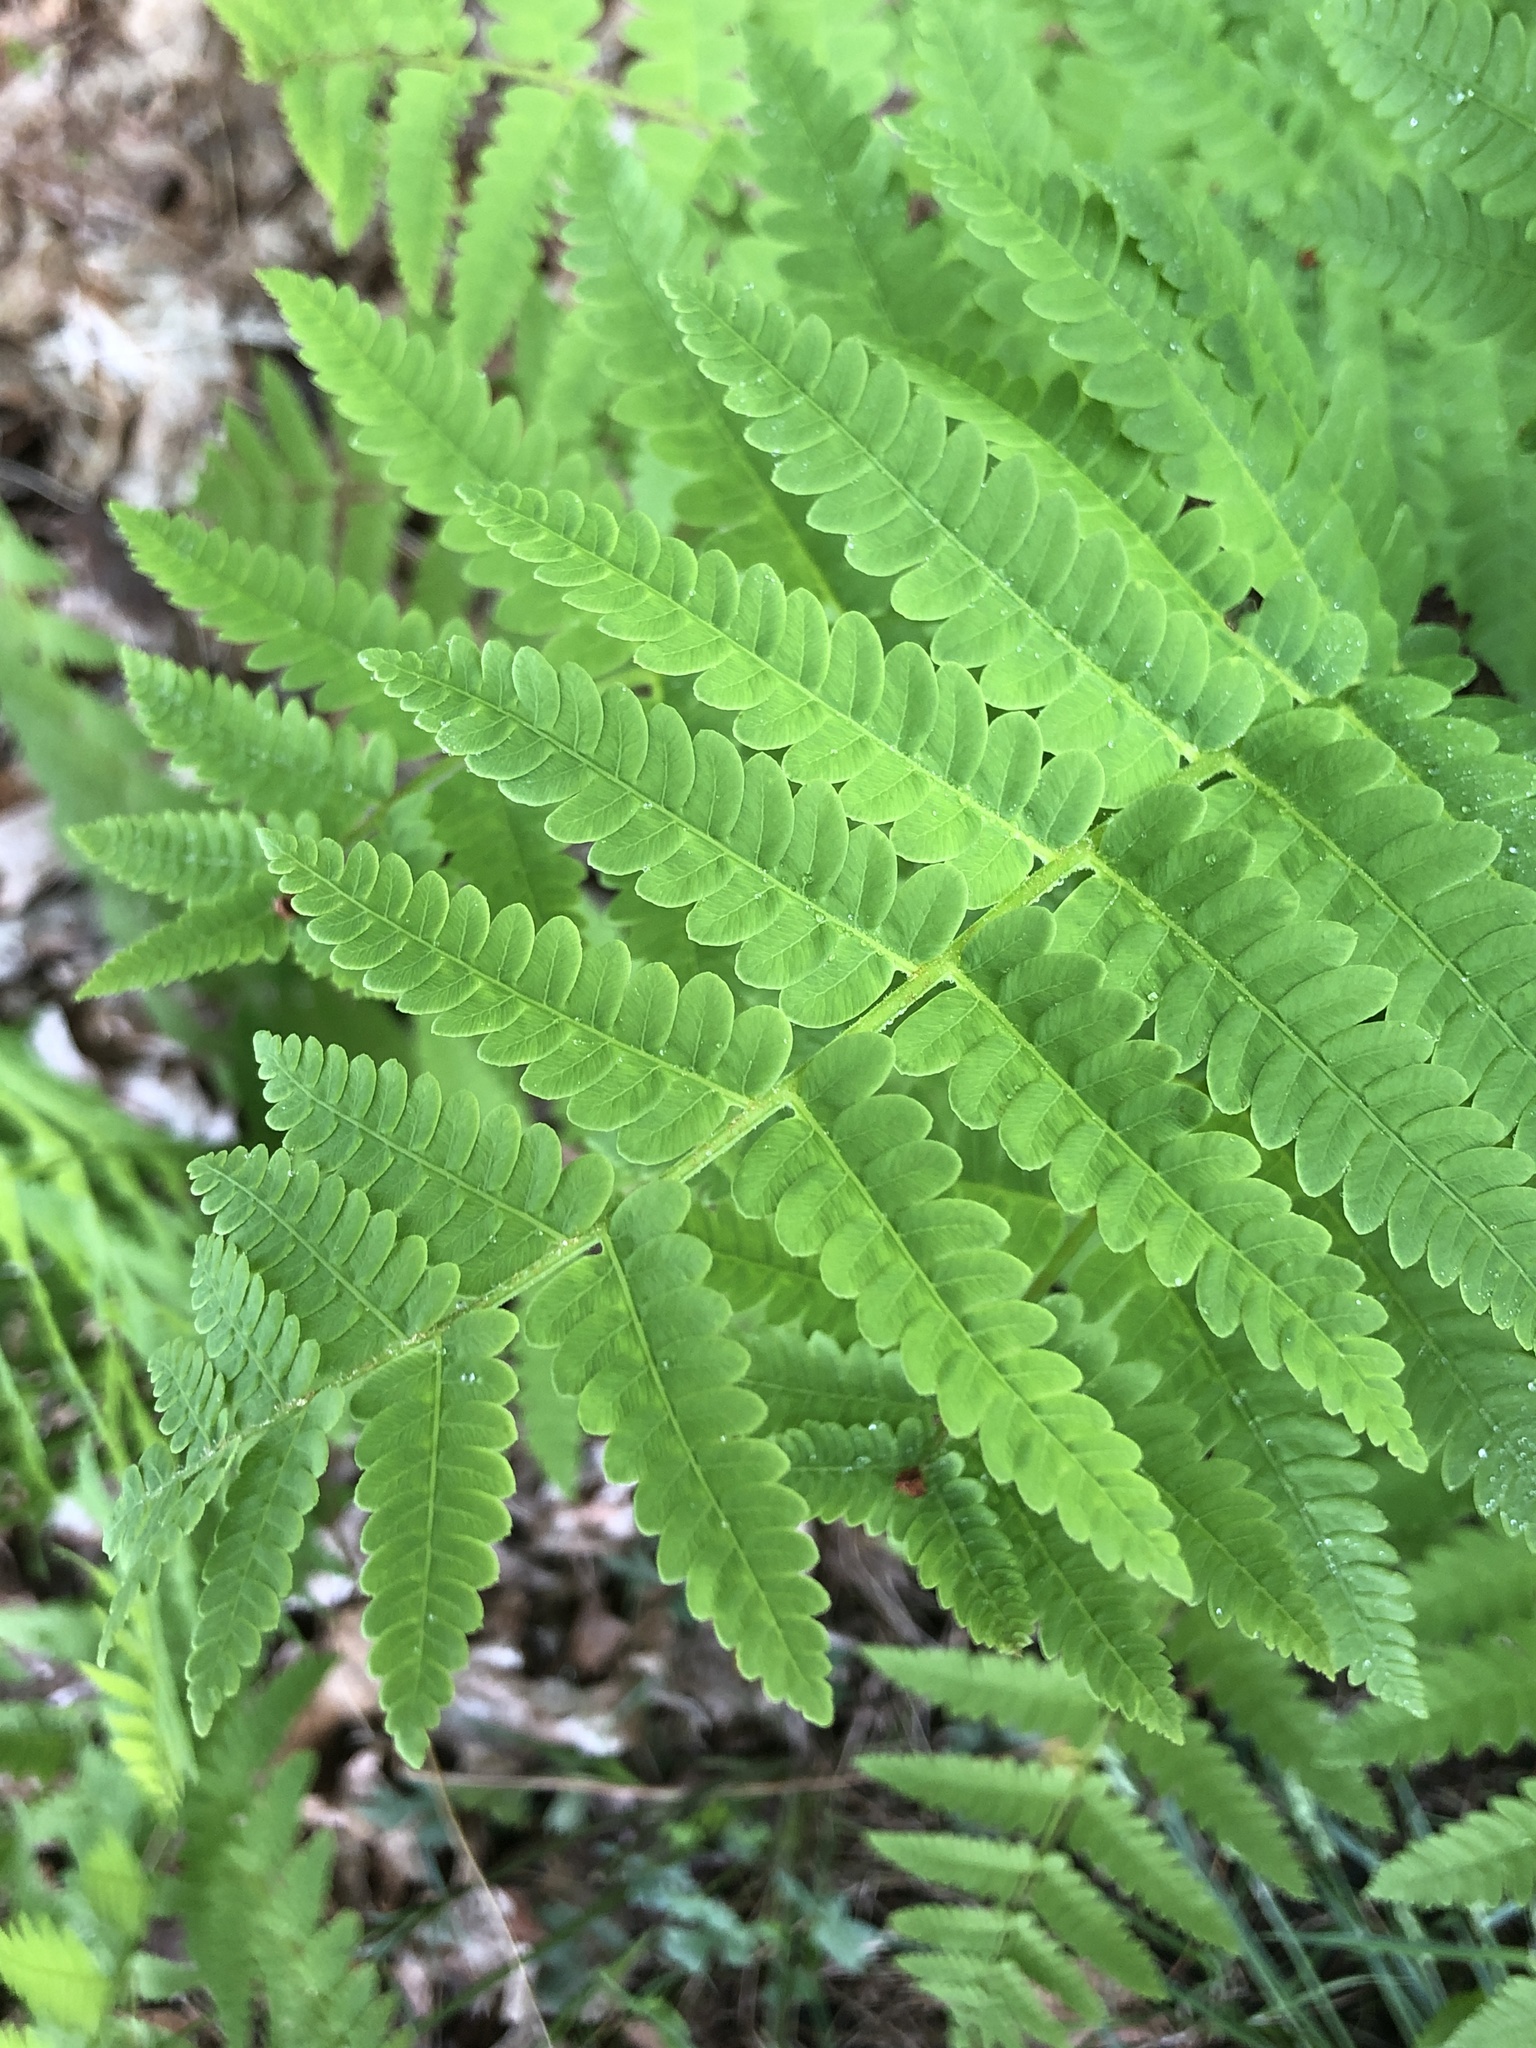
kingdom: Plantae
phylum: Tracheophyta
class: Polypodiopsida
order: Osmundales
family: Osmundaceae
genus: Claytosmunda
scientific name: Claytosmunda claytoniana
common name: Clayton's fern
